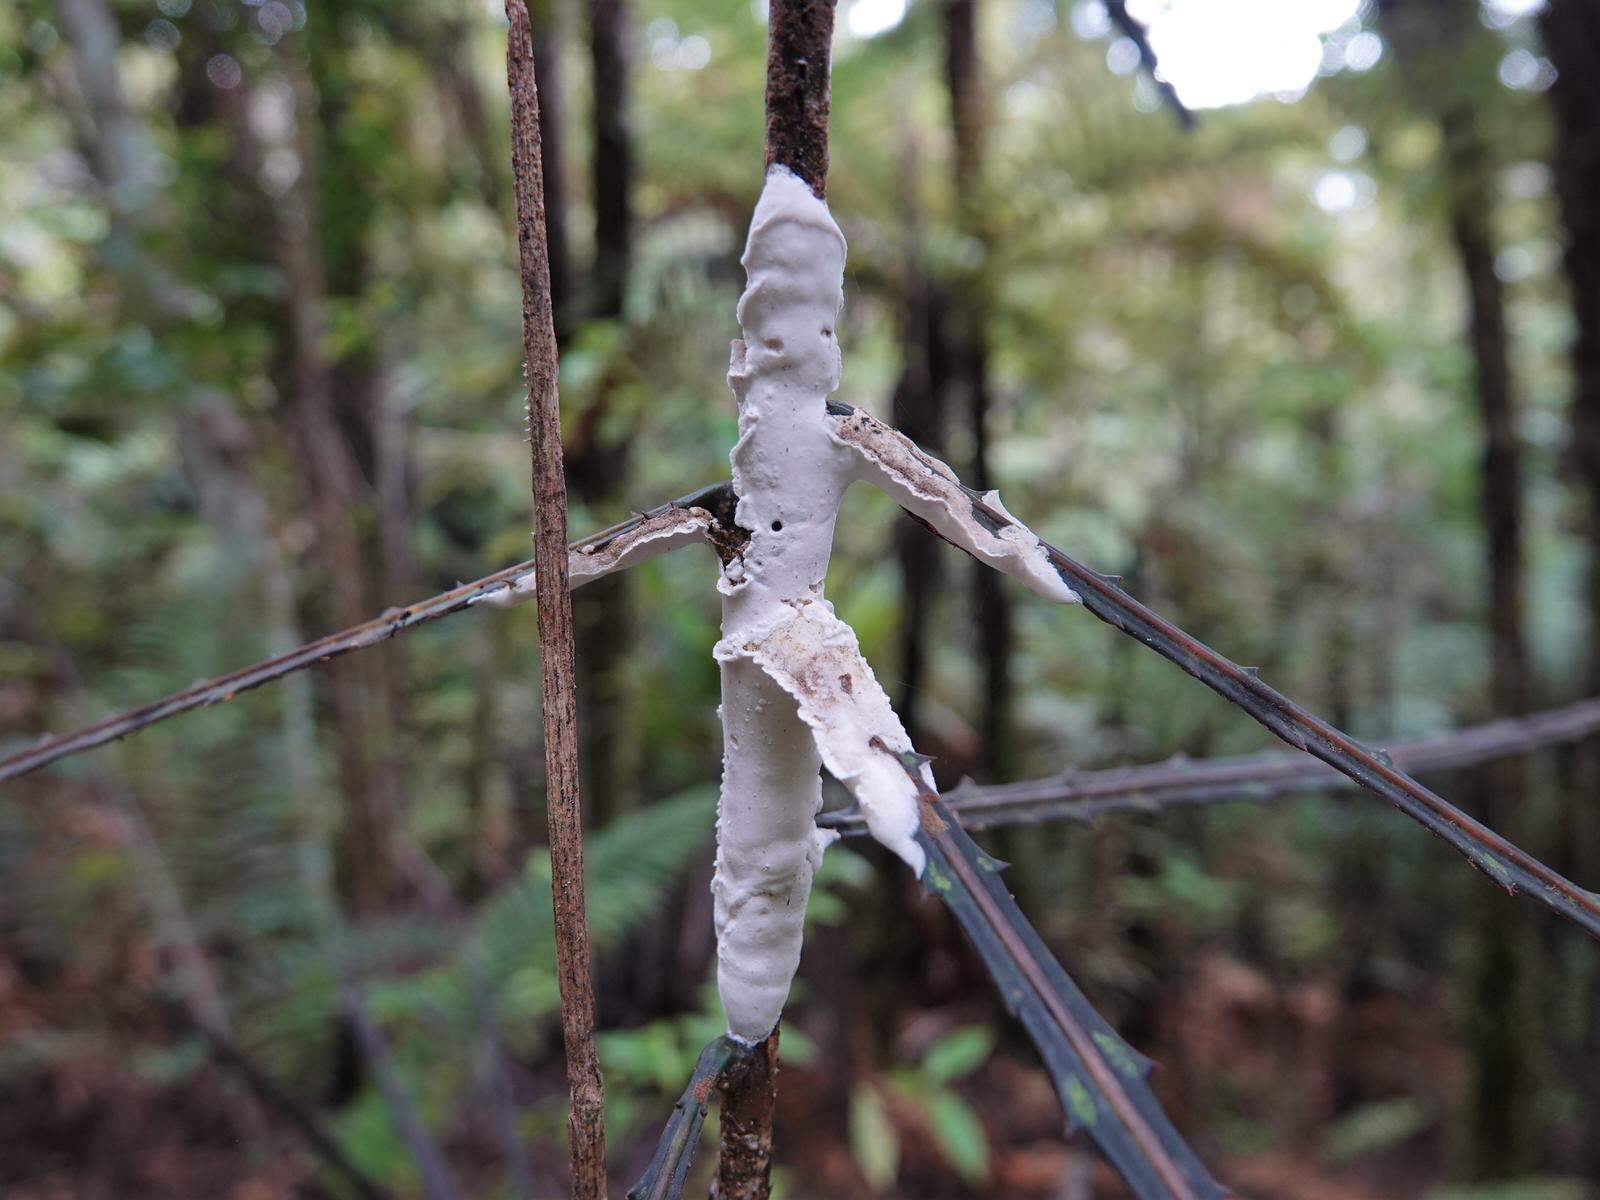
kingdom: Fungi
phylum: Basidiomycota
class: Pucciniomycetes
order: Septobasidiales
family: Septobasidiaceae
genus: Septobasidium
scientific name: Septobasidium simmondsii
